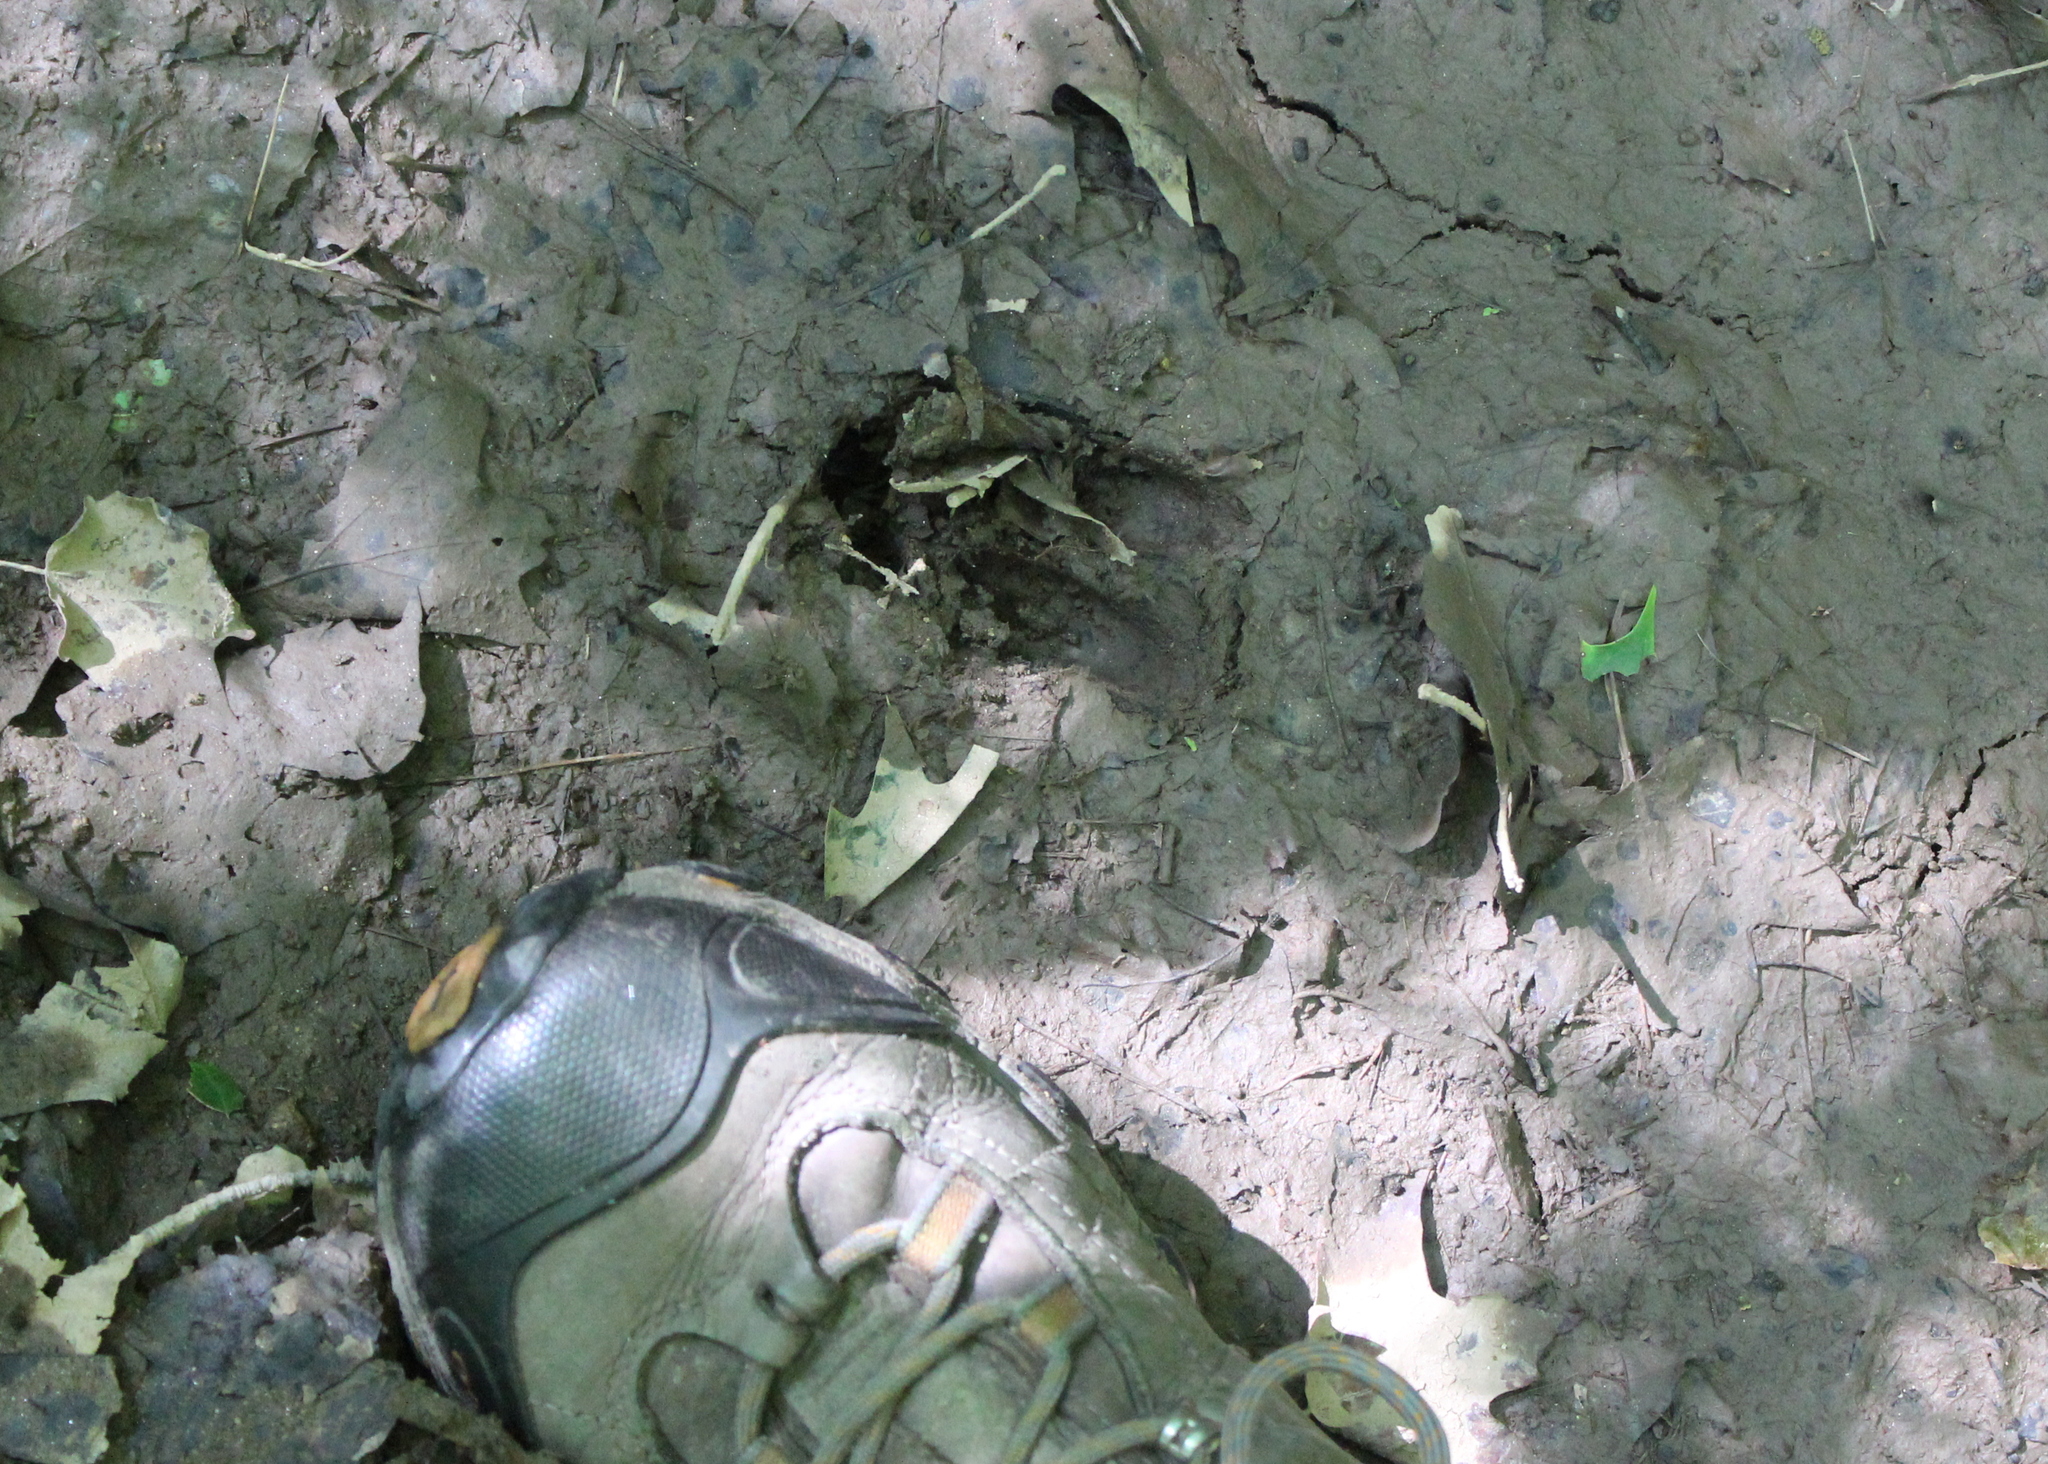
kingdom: Animalia
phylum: Chordata
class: Mammalia
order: Artiodactyla
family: Cervidae
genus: Odocoileus
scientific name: Odocoileus virginianus
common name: White-tailed deer
